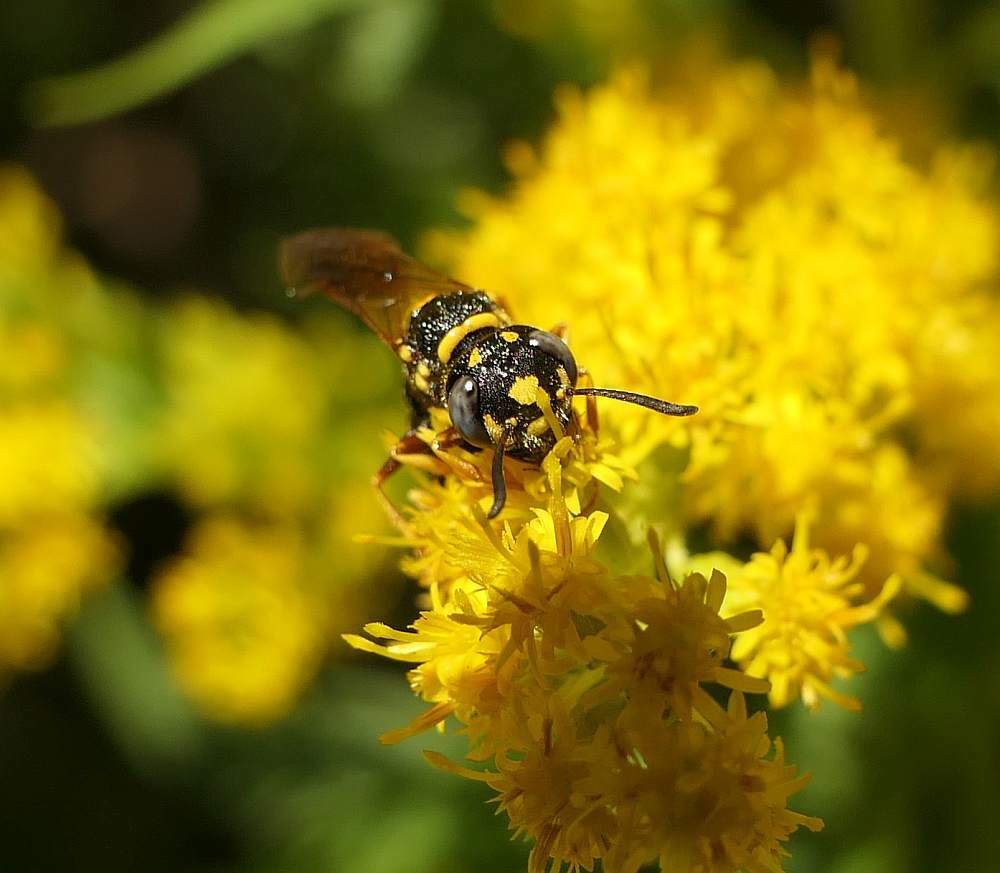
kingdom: Animalia
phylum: Arthropoda
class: Insecta
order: Hymenoptera
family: Crabronidae
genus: Philanthus
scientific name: Philanthus gibbosus
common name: Humped beewolf
